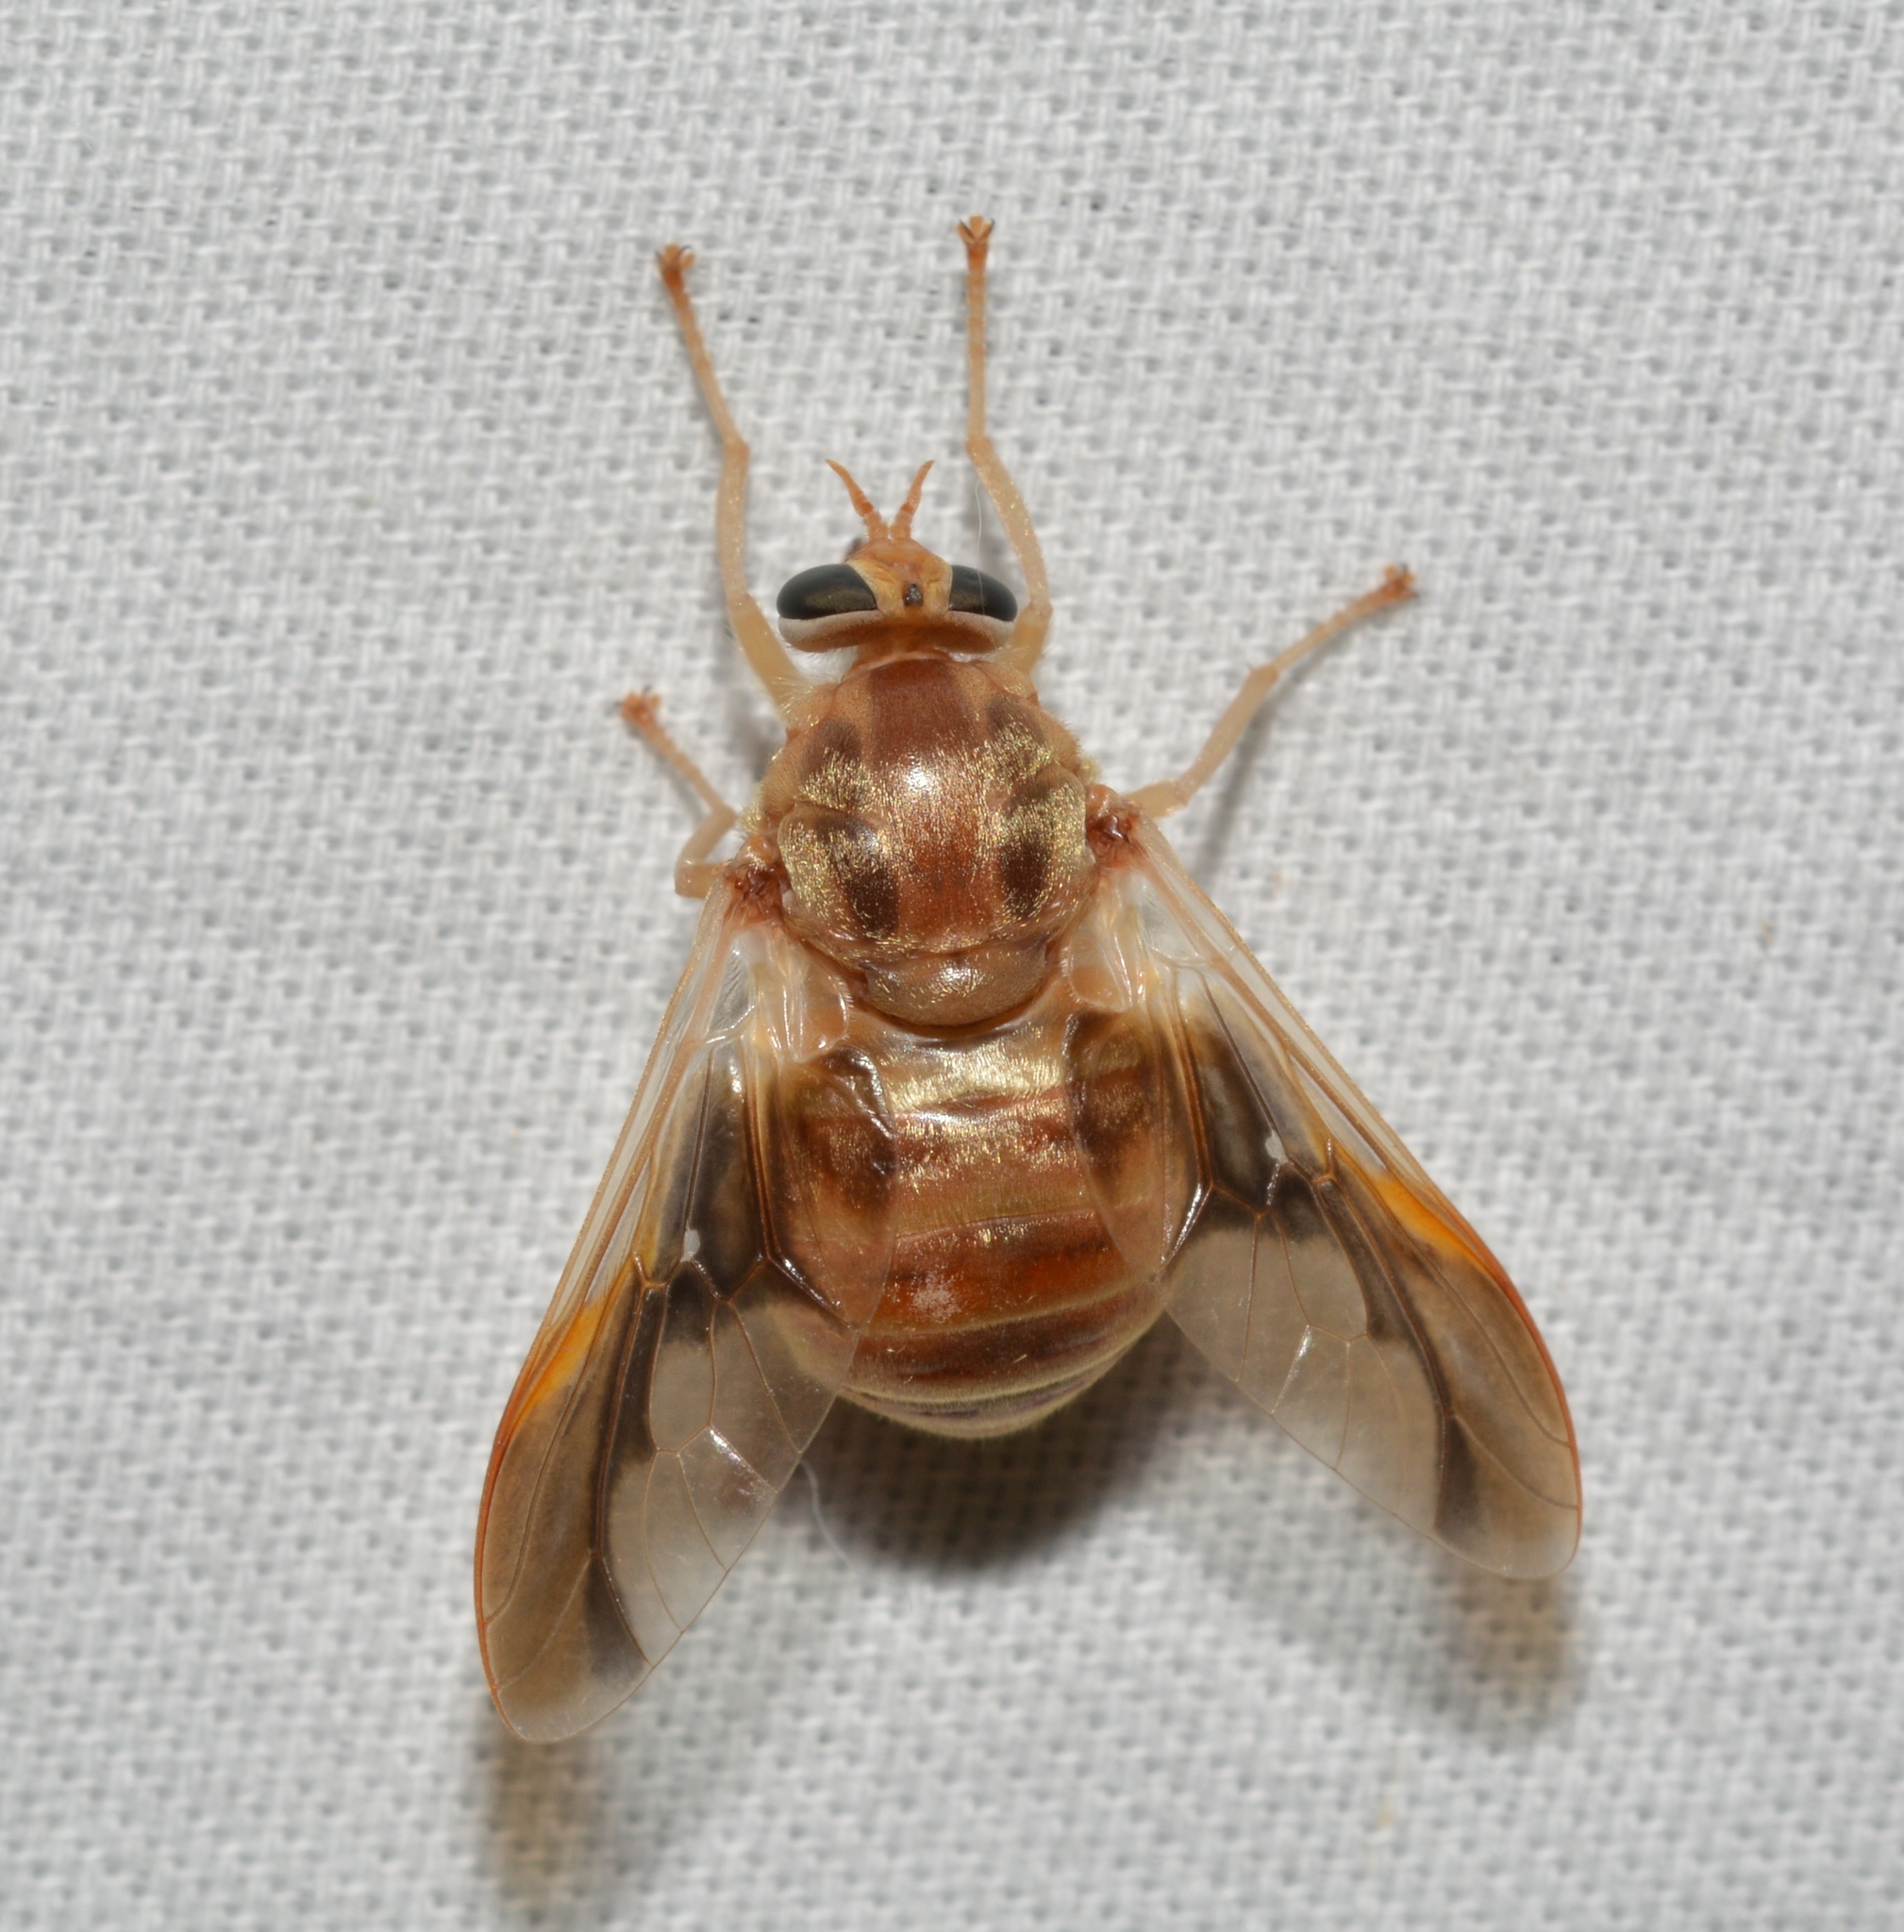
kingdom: Animalia
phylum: Arthropoda
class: Insecta
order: Diptera
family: Tabanidae
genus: Goniops
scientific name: Goniops chrysocoma
